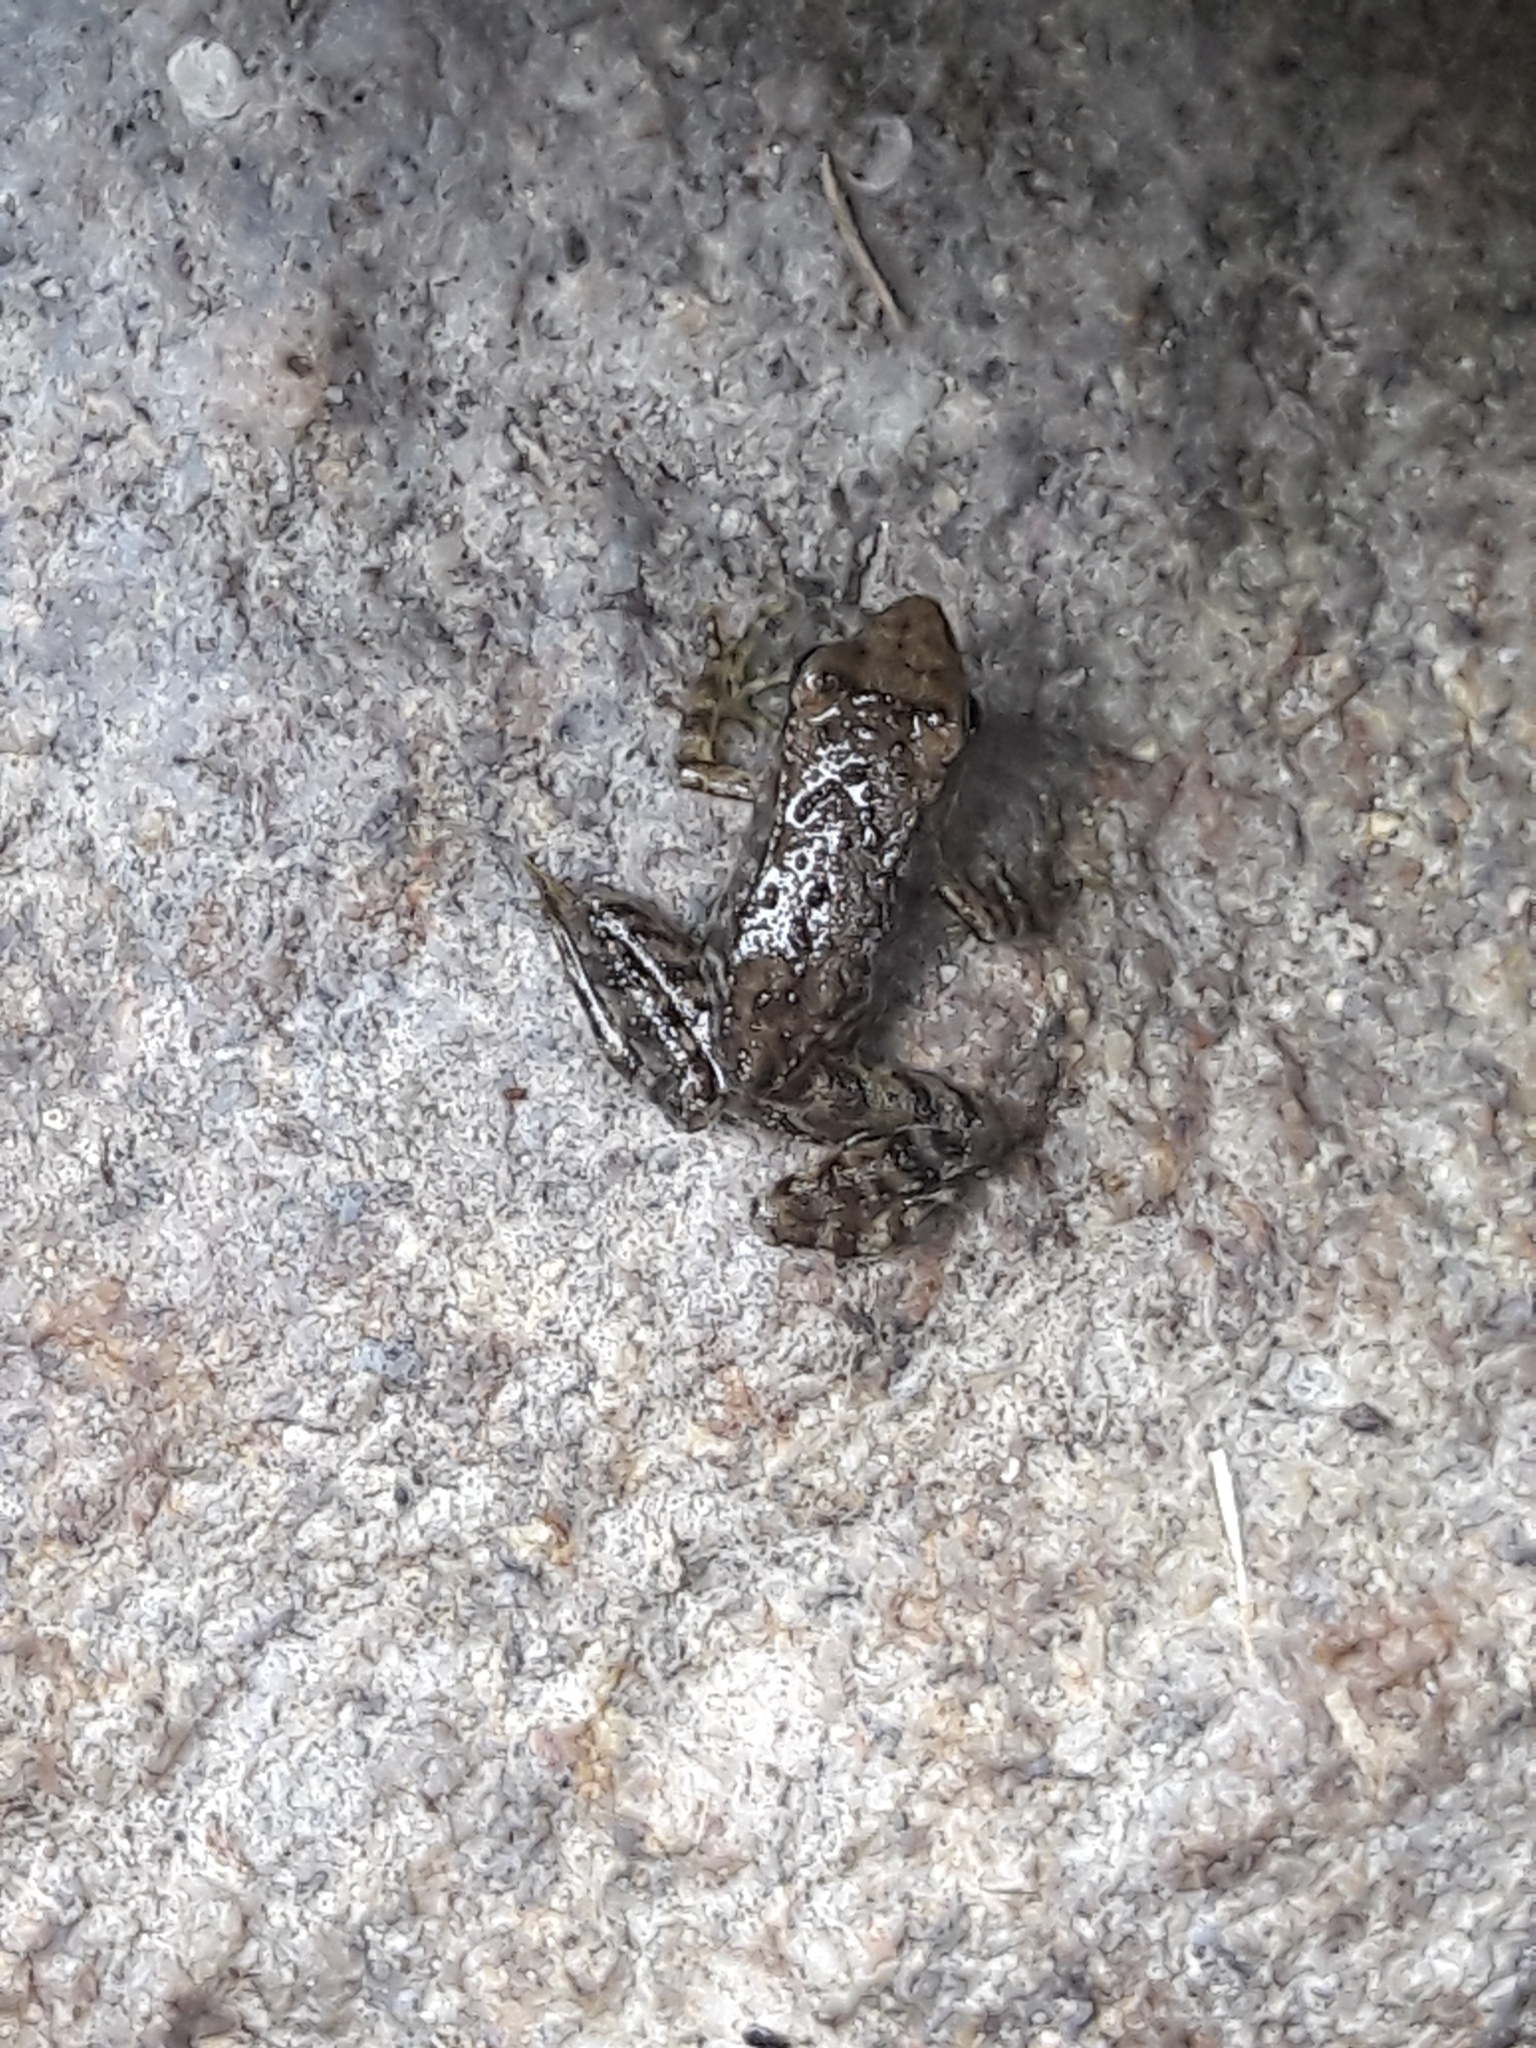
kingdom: Animalia
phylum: Chordata
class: Amphibia
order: Anura
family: Ranidae
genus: Rana
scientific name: Rana iberica
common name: Iberian frog
